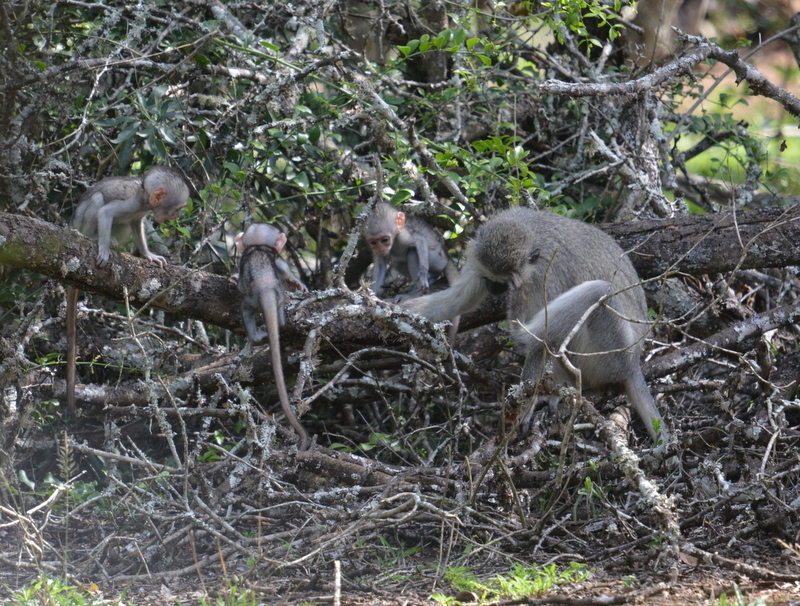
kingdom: Animalia
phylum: Chordata
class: Mammalia
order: Primates
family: Cercopithecidae
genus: Chlorocebus
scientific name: Chlorocebus pygerythrus
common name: Vervet monkey
